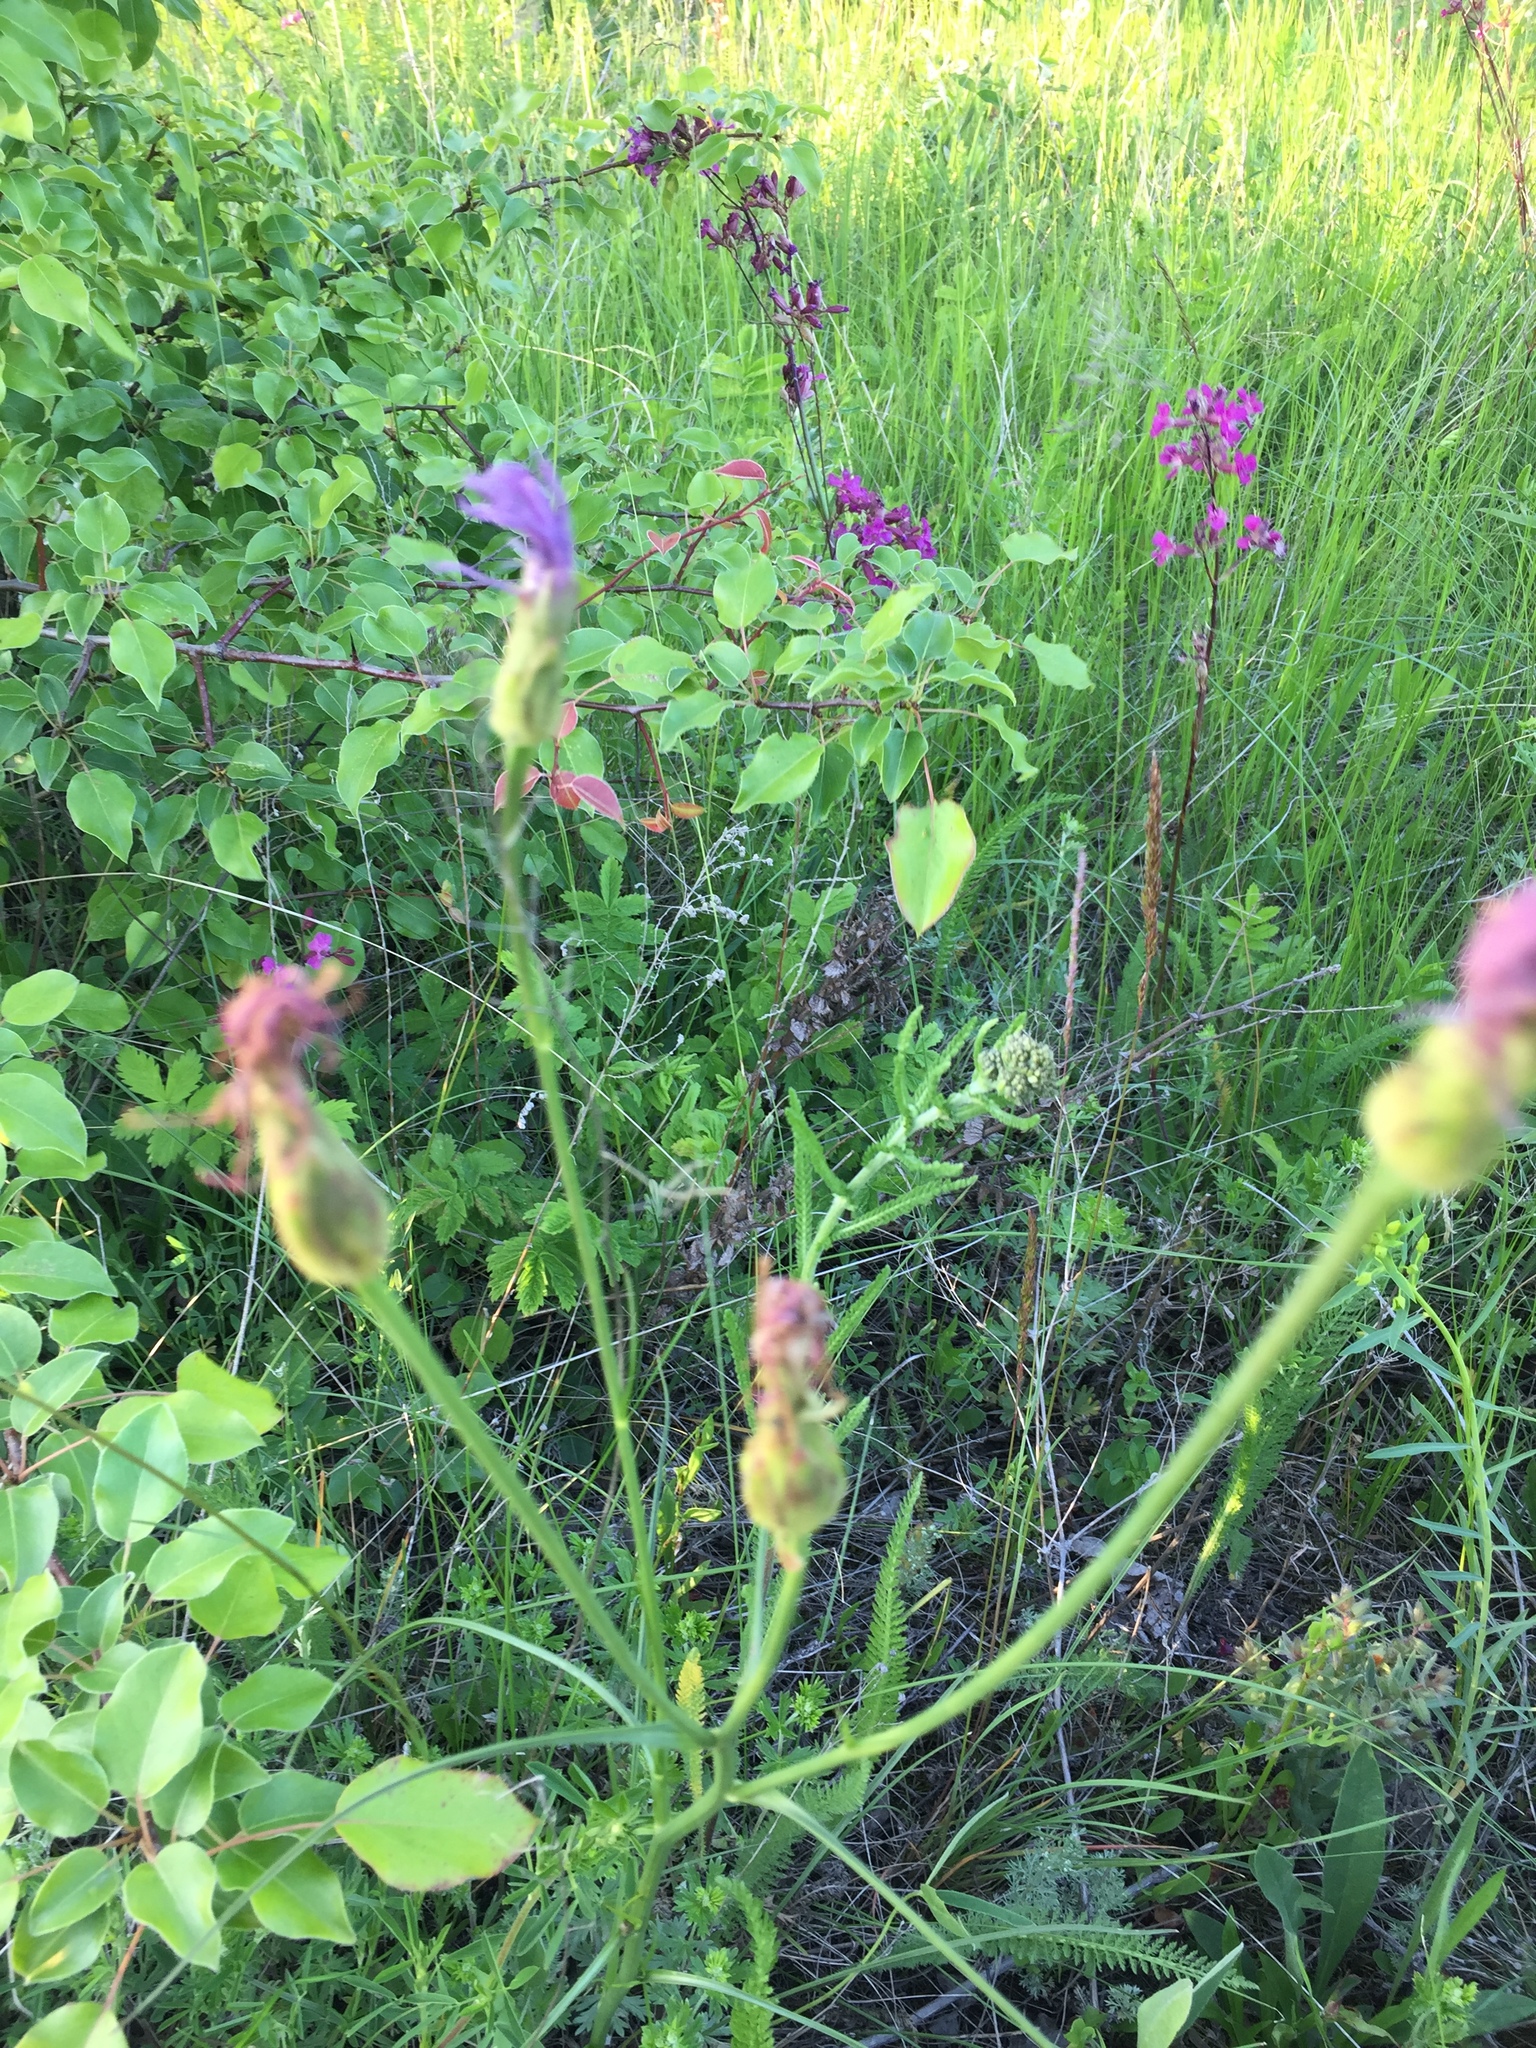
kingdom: Plantae
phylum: Tracheophyta
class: Magnoliopsida
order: Asterales
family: Asteraceae
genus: Scorzonera
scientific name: Scorzonera purpurea
